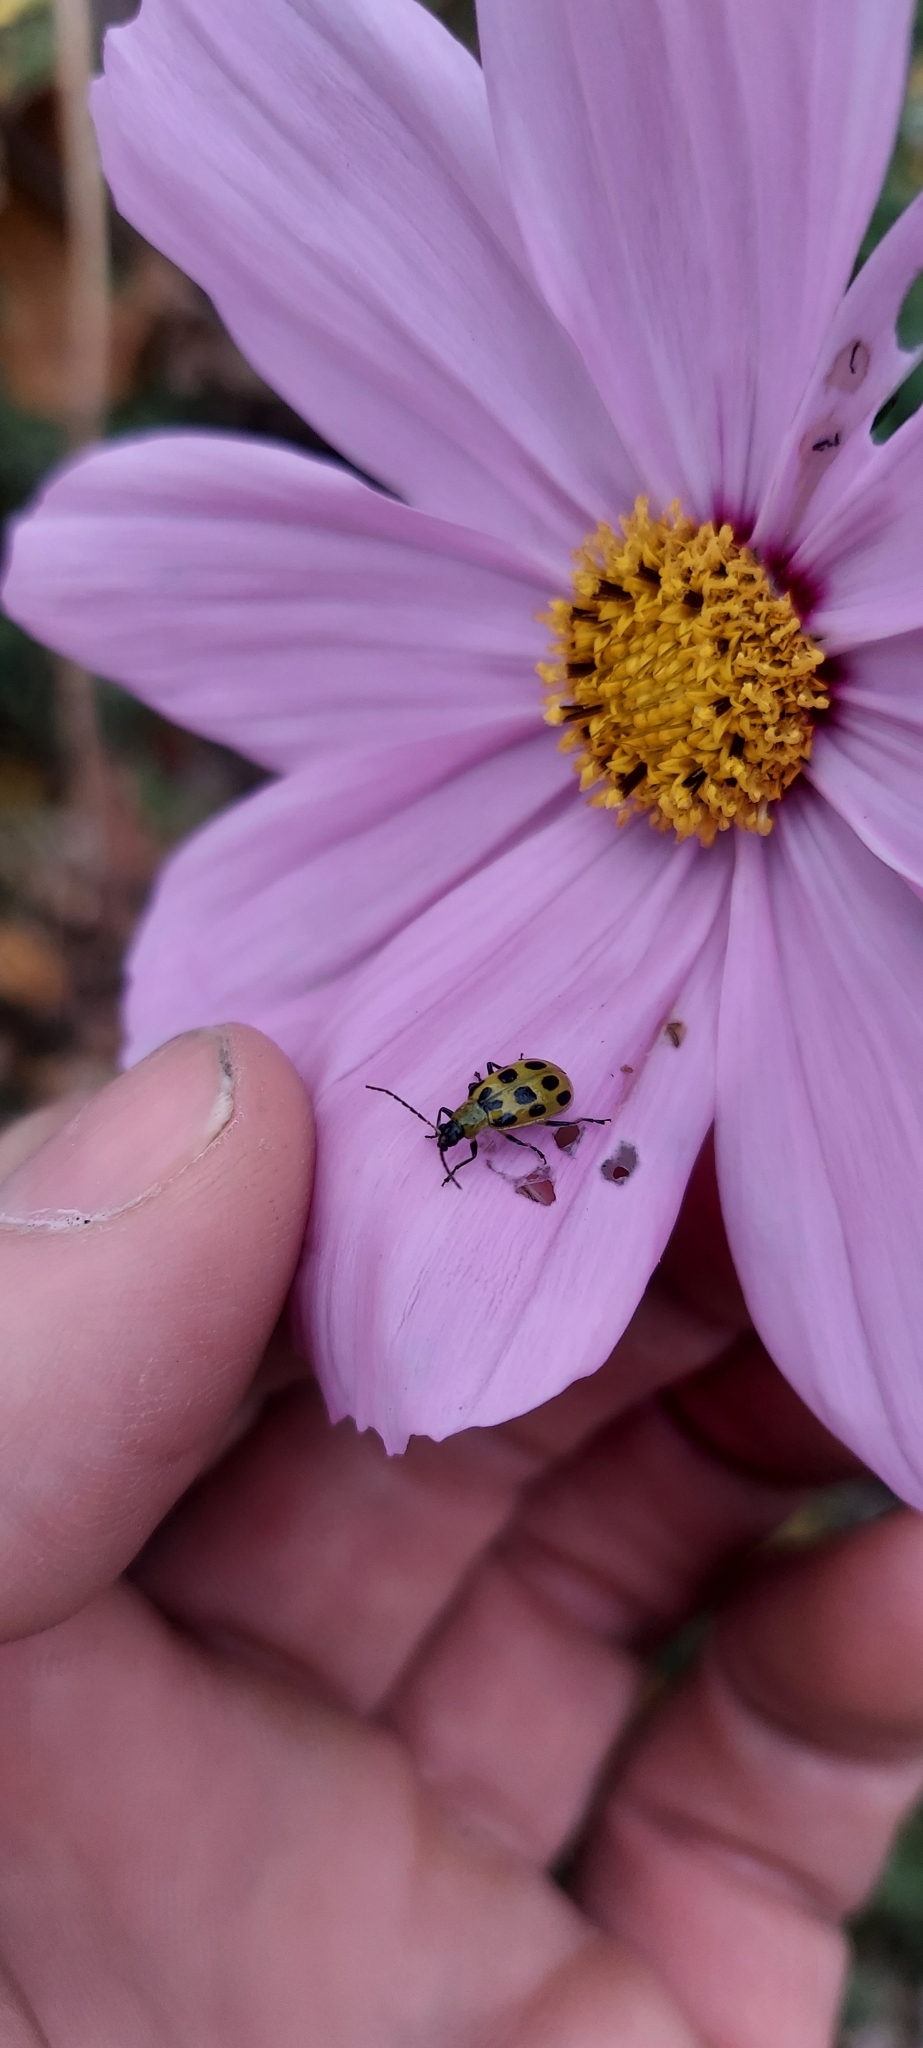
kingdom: Animalia
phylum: Arthropoda
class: Insecta
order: Coleoptera
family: Chrysomelidae
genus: Diabrotica
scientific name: Diabrotica undecimpunctata
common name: Spotted cucumber beetle
